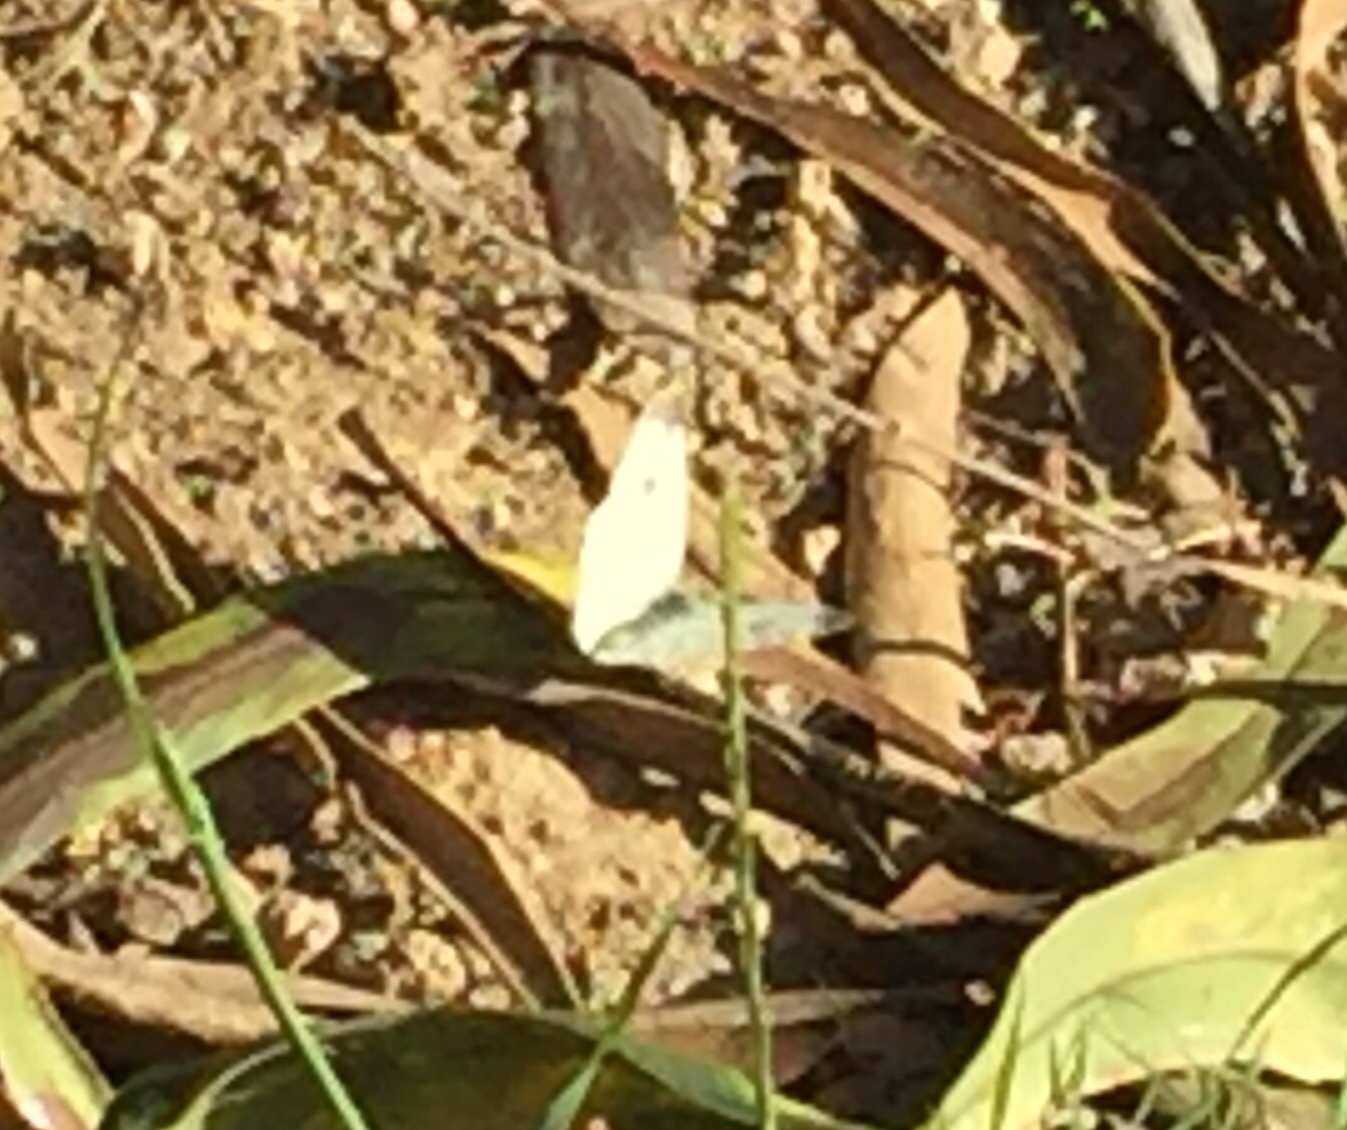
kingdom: Animalia
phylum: Arthropoda
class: Insecta
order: Lepidoptera
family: Pieridae
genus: Pieris
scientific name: Pieris rapae
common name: Small white
